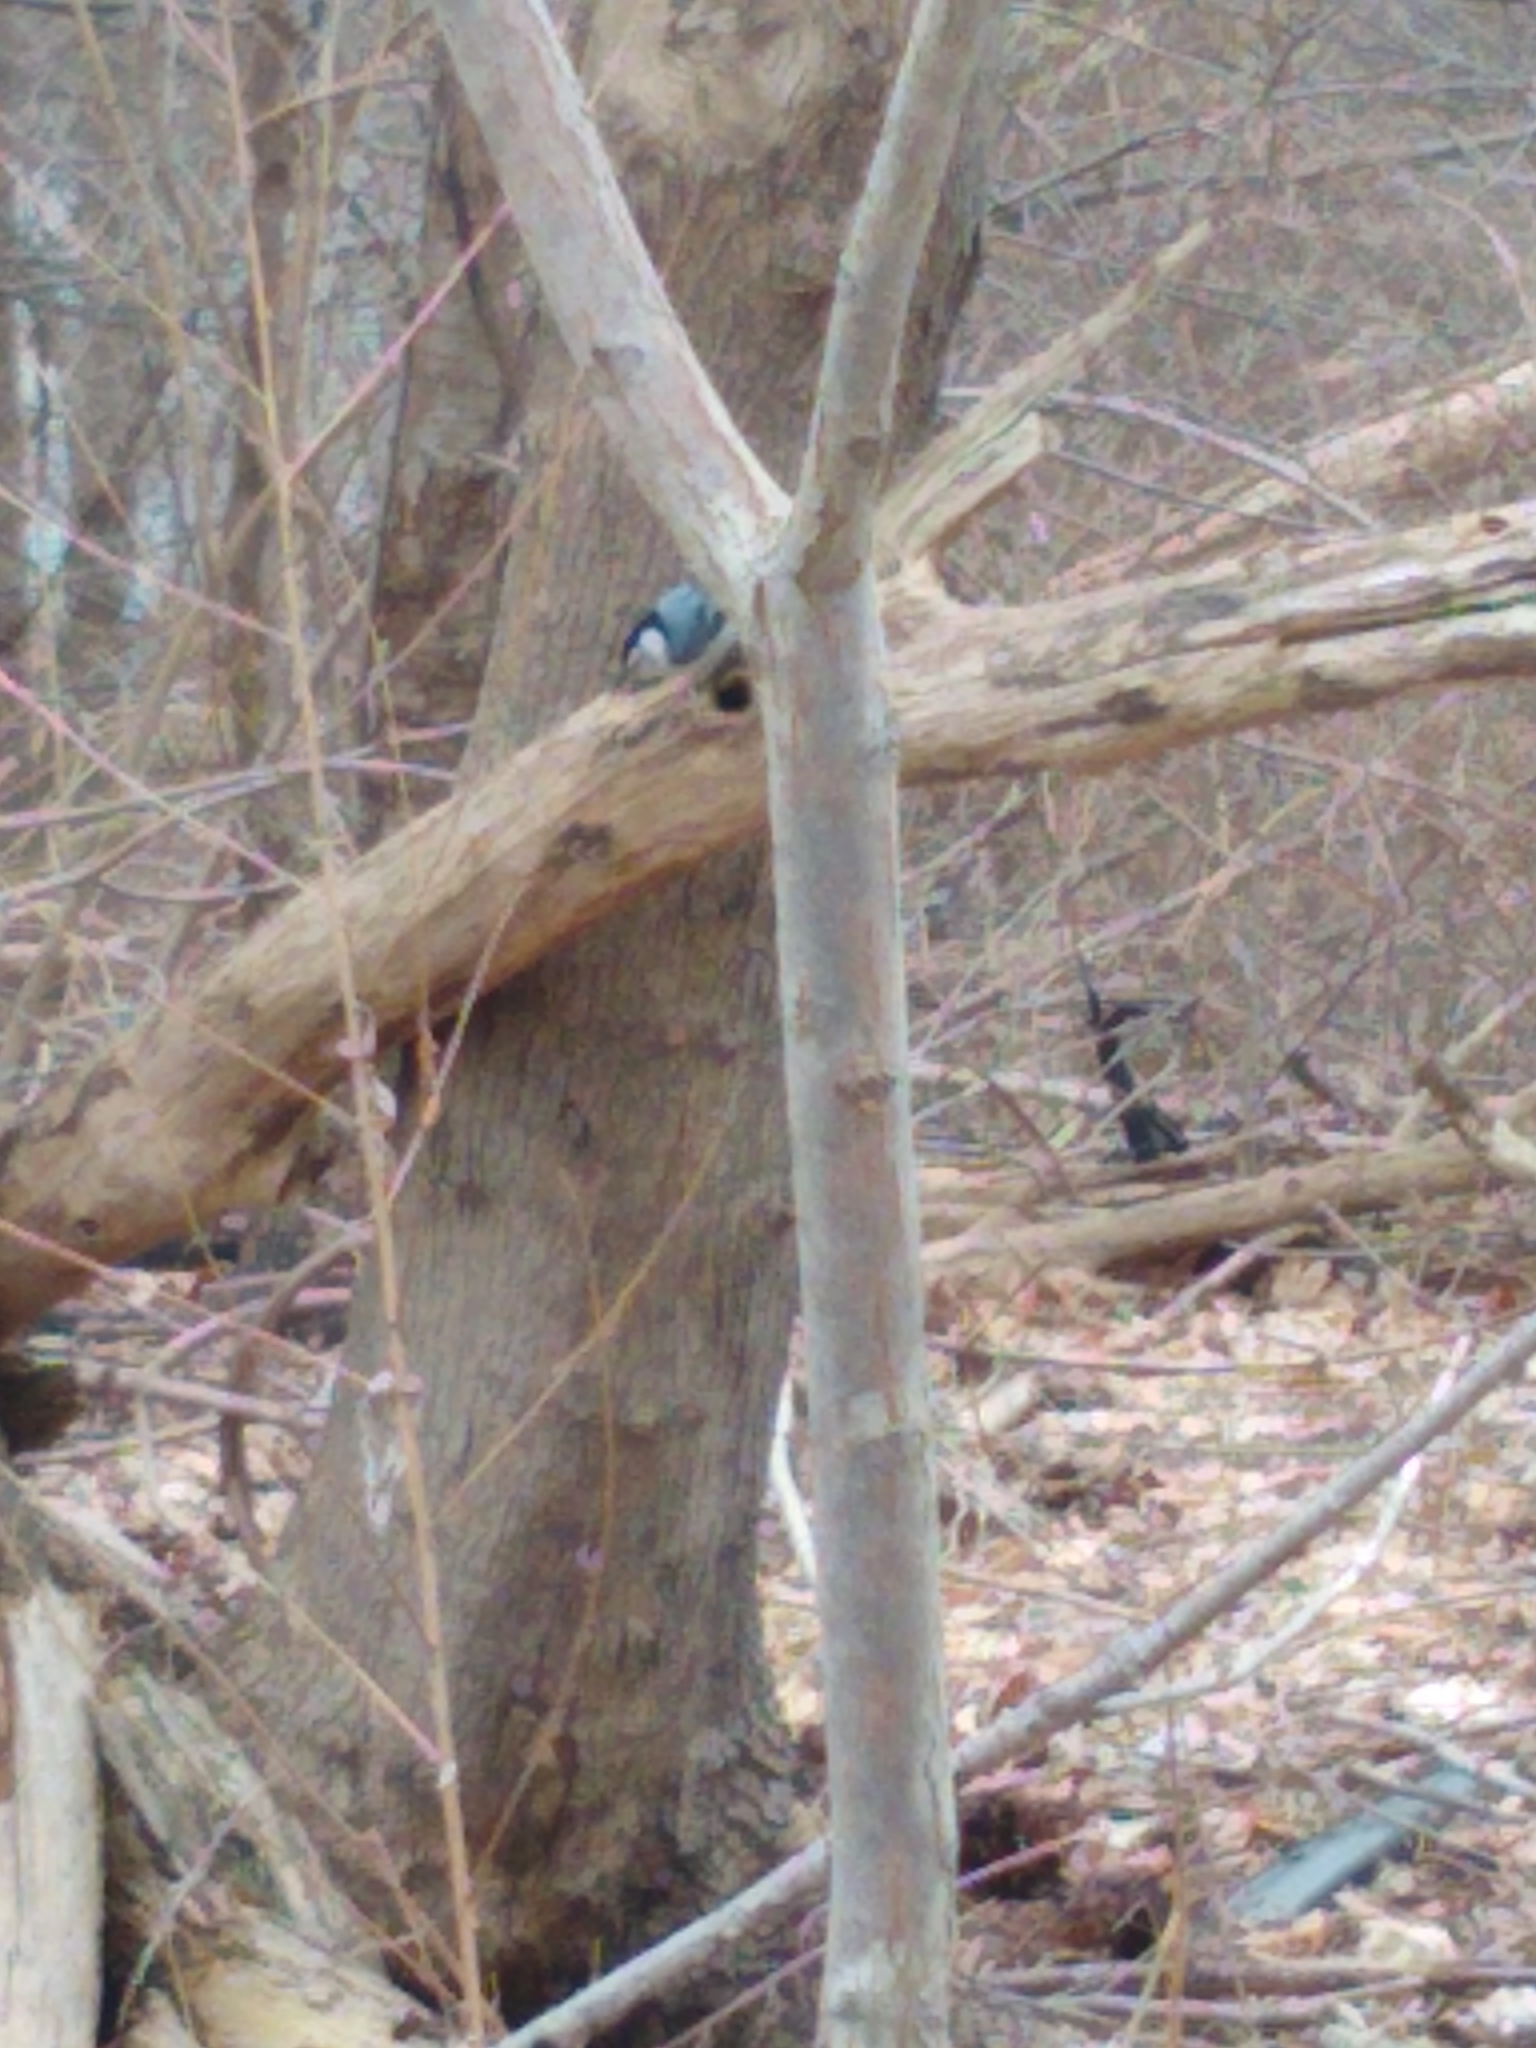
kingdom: Animalia
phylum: Chordata
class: Aves
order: Passeriformes
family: Sittidae
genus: Sitta
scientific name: Sitta carolinensis
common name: White-breasted nuthatch
